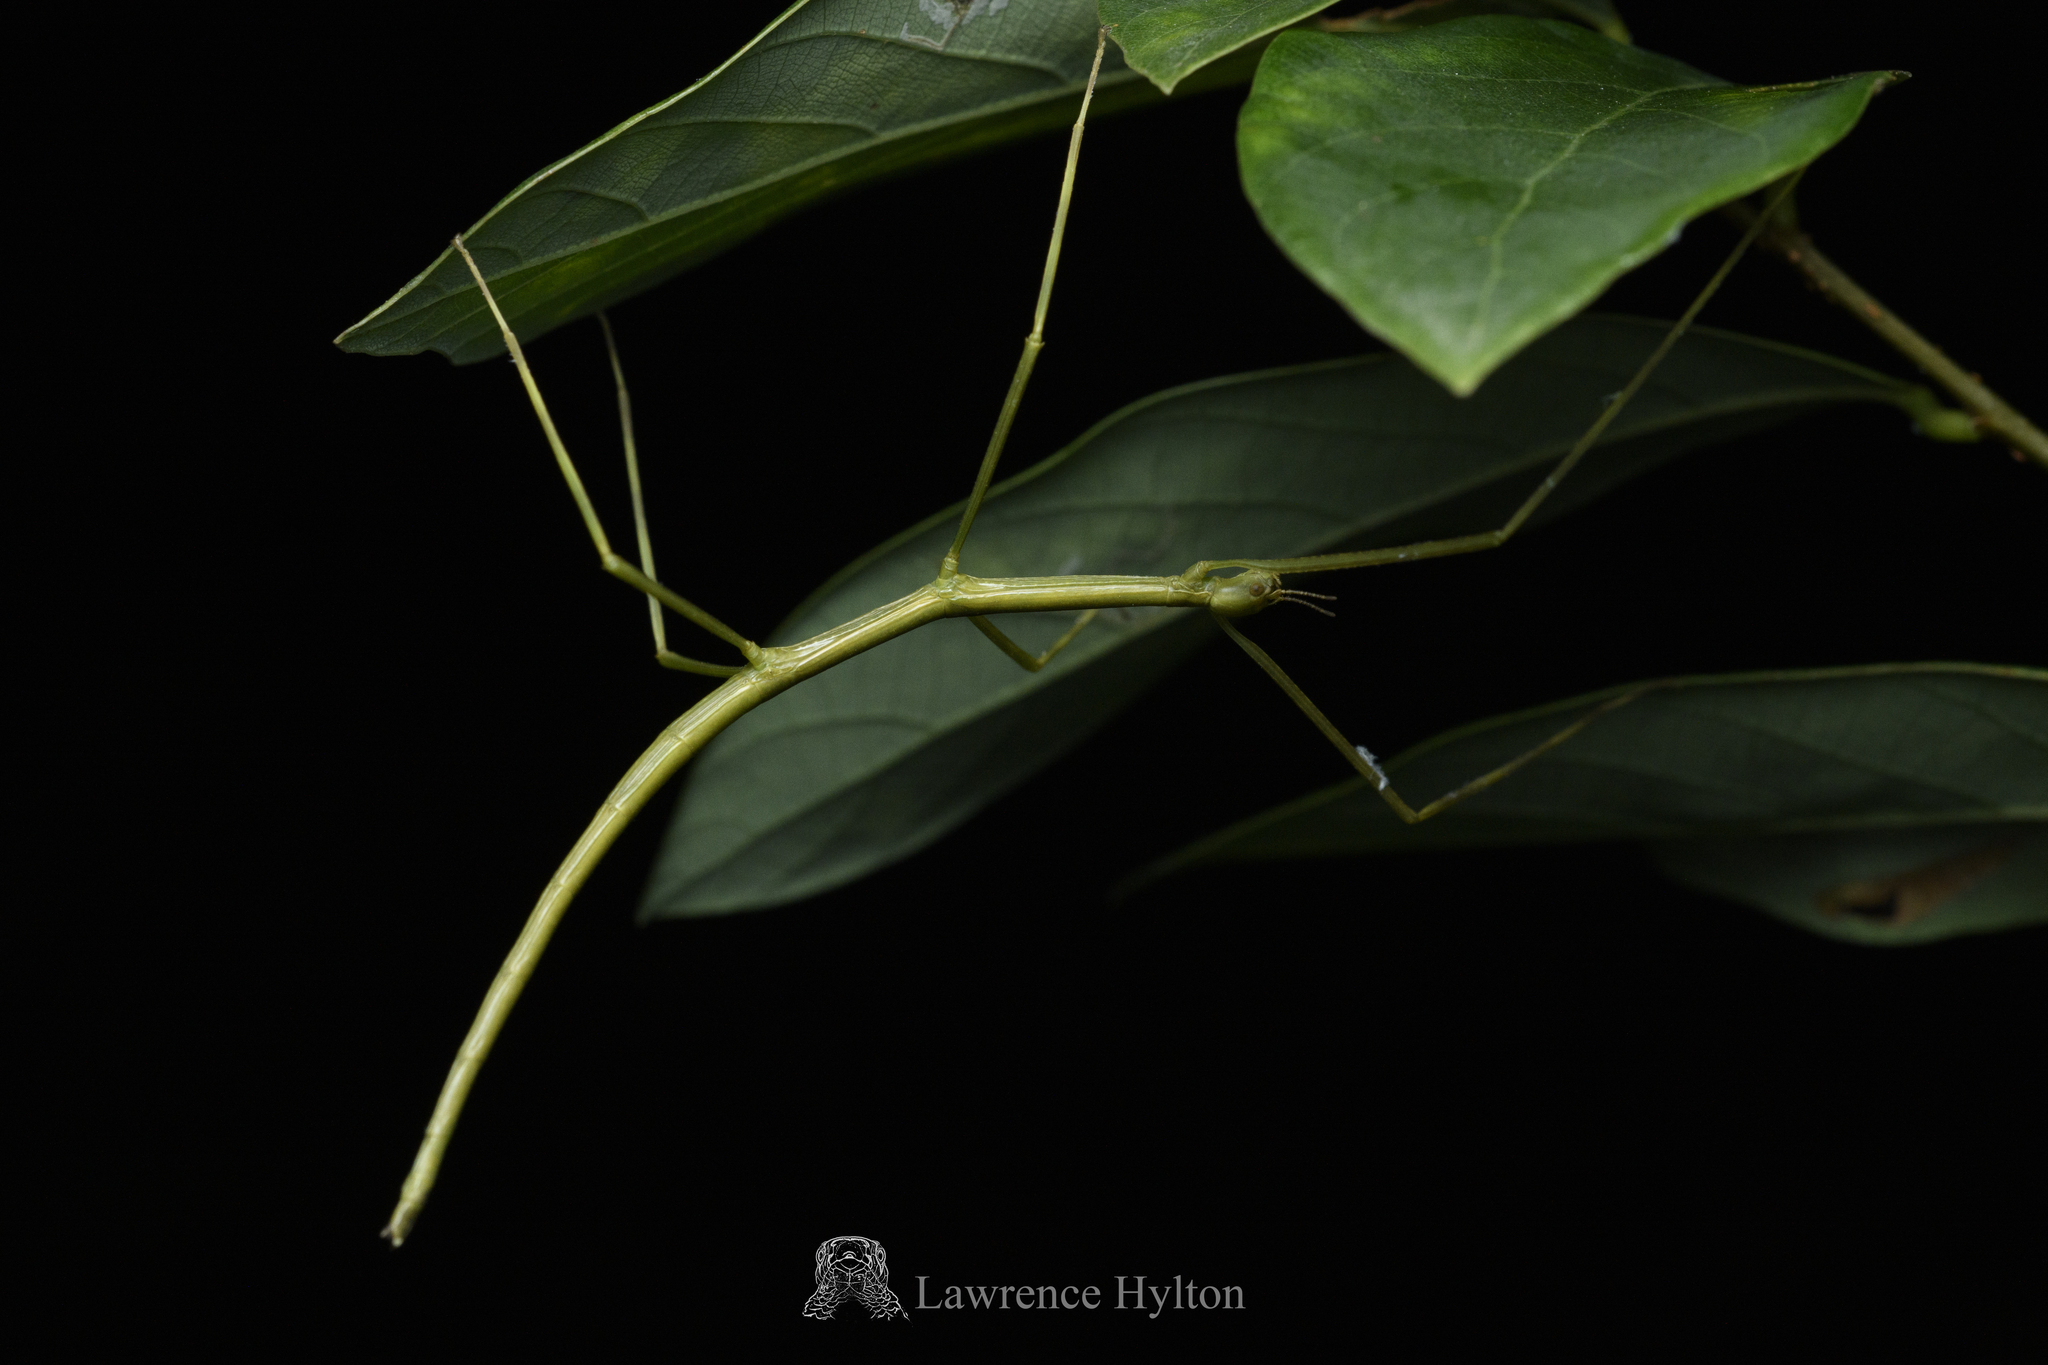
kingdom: Animalia
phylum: Arthropoda
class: Insecta
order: Phasmida
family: Phasmatidae
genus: Ramulus
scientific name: Ramulus caii
